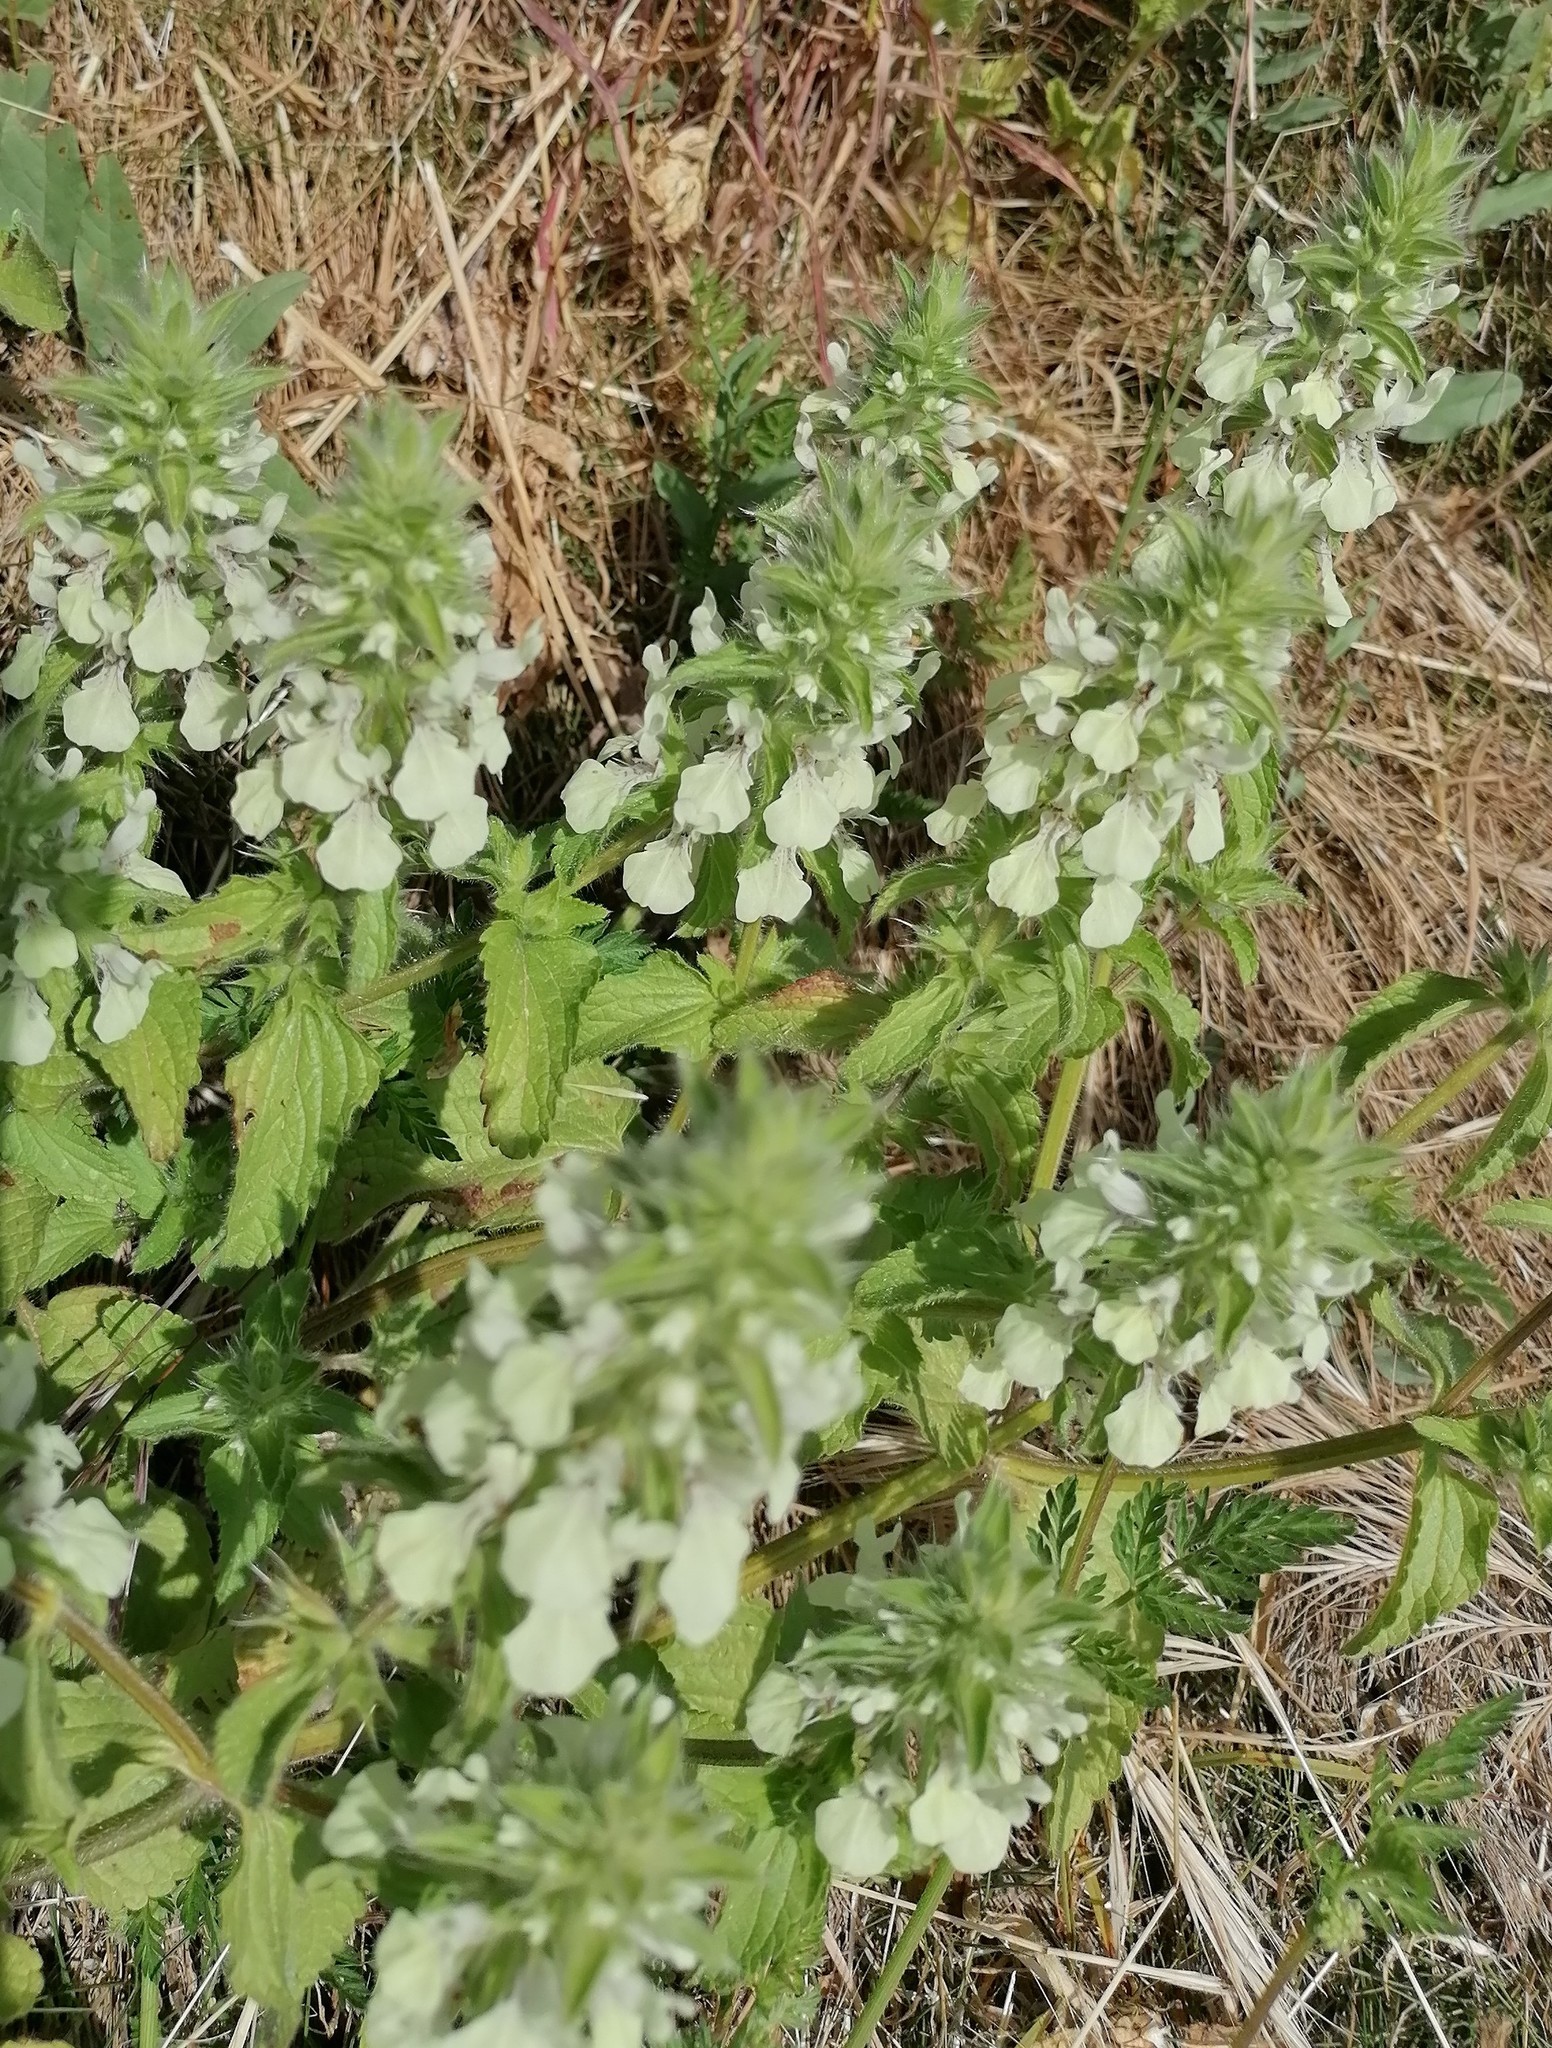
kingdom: Plantae
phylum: Tracheophyta
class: Magnoliopsida
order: Lamiales
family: Lamiaceae
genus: Stachys
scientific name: Stachys ocymastrum
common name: Italian hedgenettle
